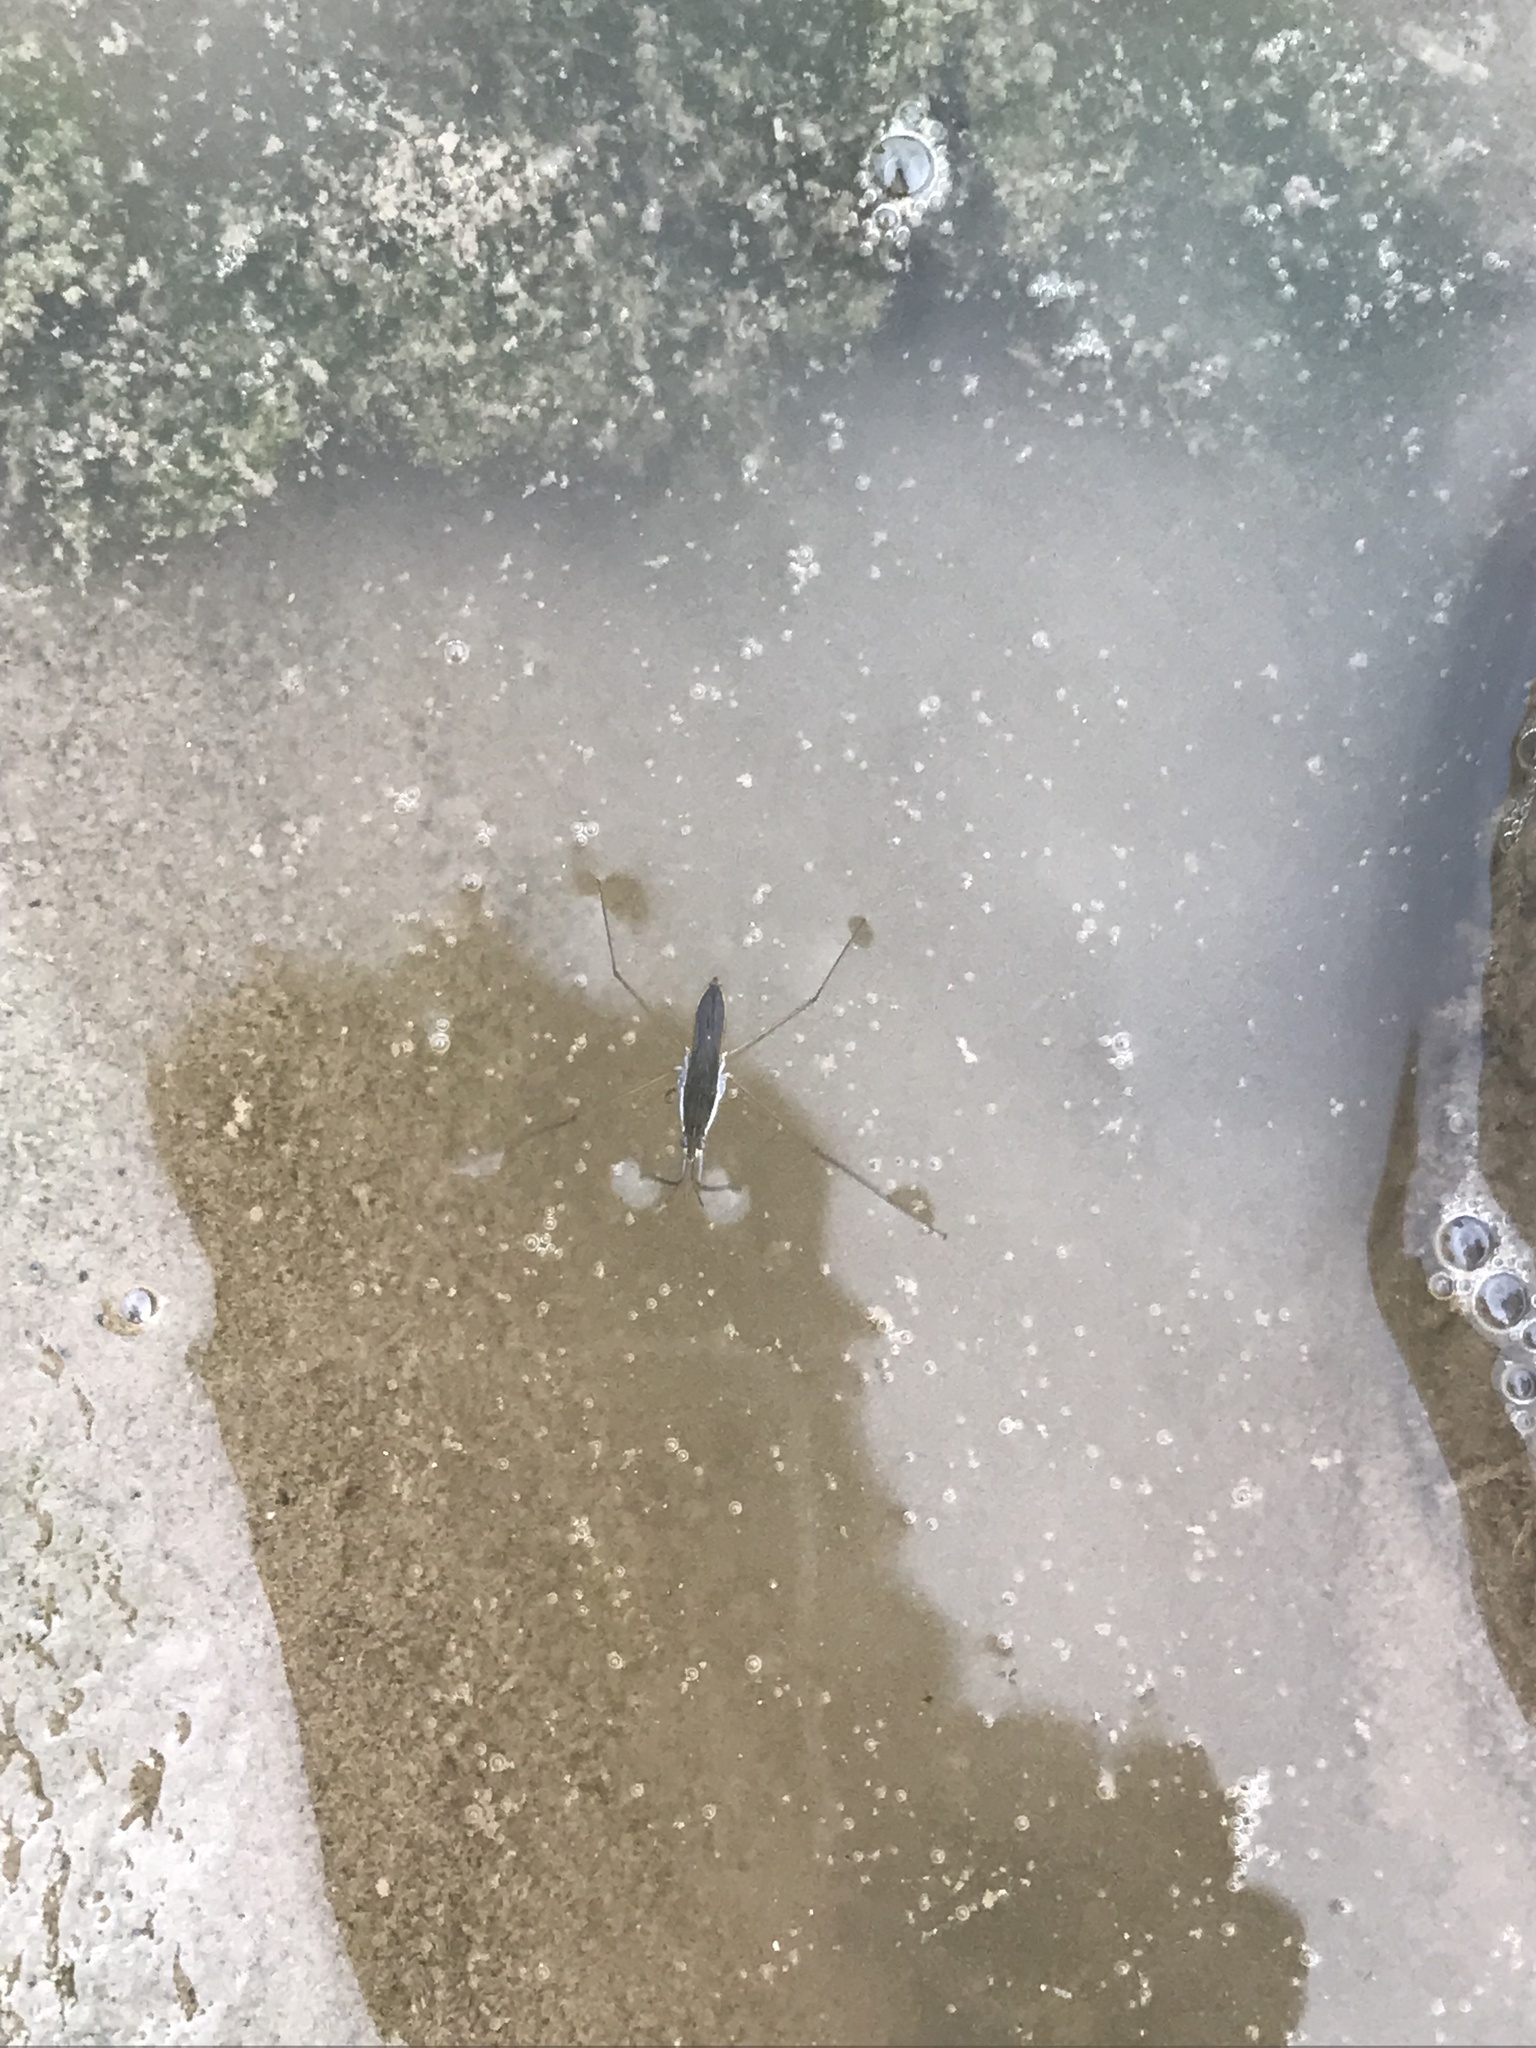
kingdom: Animalia
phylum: Arthropoda
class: Insecta
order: Hemiptera
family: Gerridae
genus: Gerris
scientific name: Gerris
